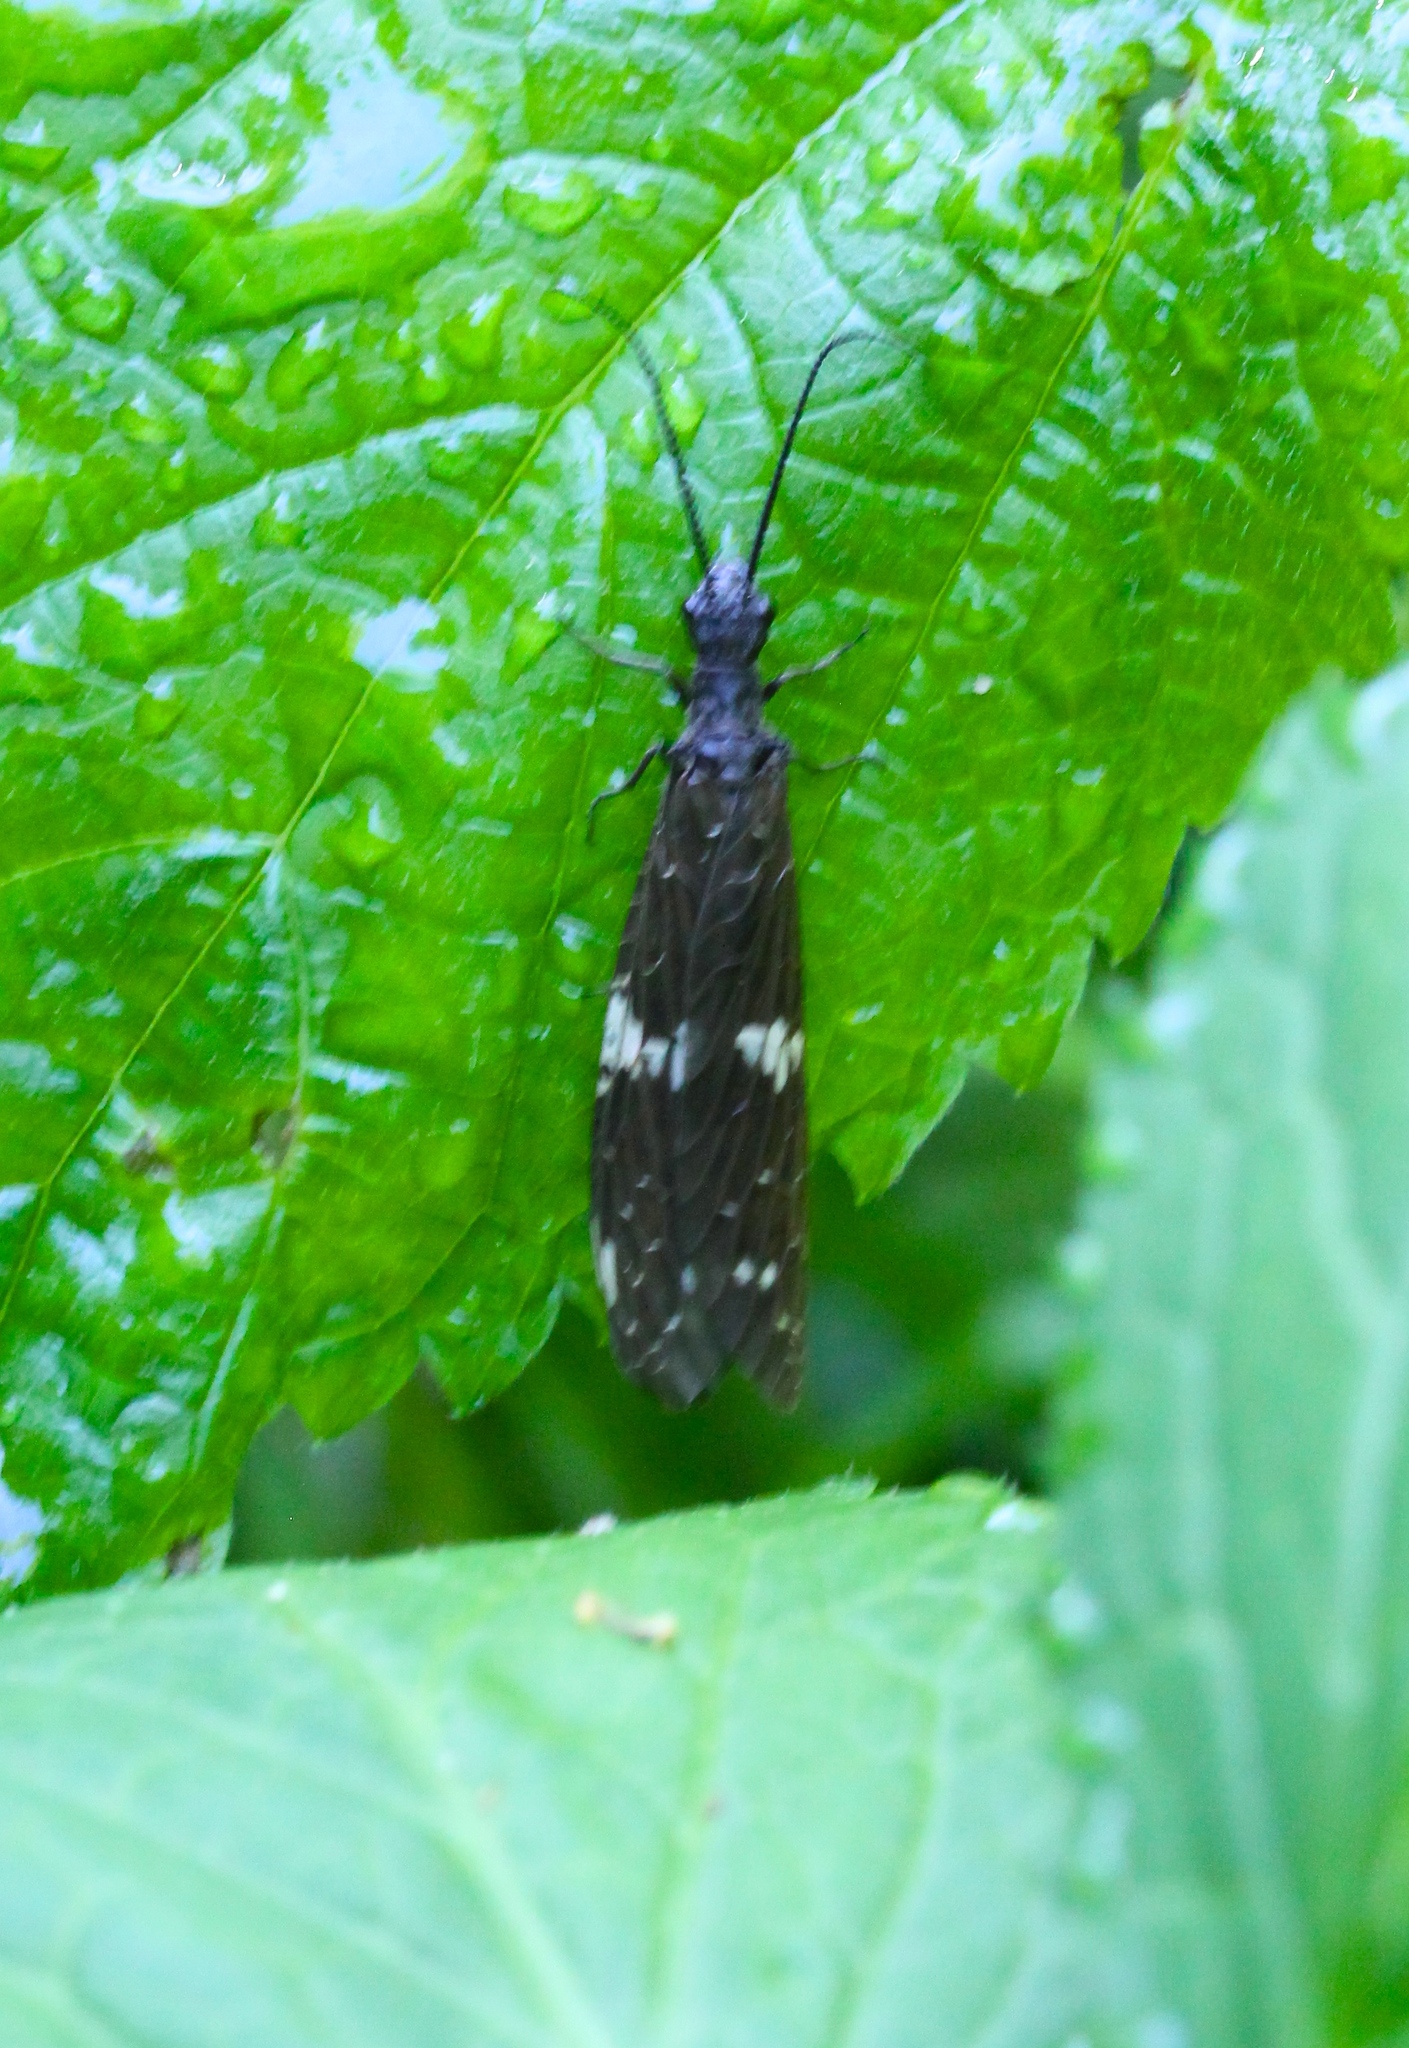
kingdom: Animalia
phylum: Arthropoda
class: Insecta
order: Megaloptera
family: Corydalidae
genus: Nigronia
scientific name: Nigronia serricornis
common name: Serrate dark fishfly
